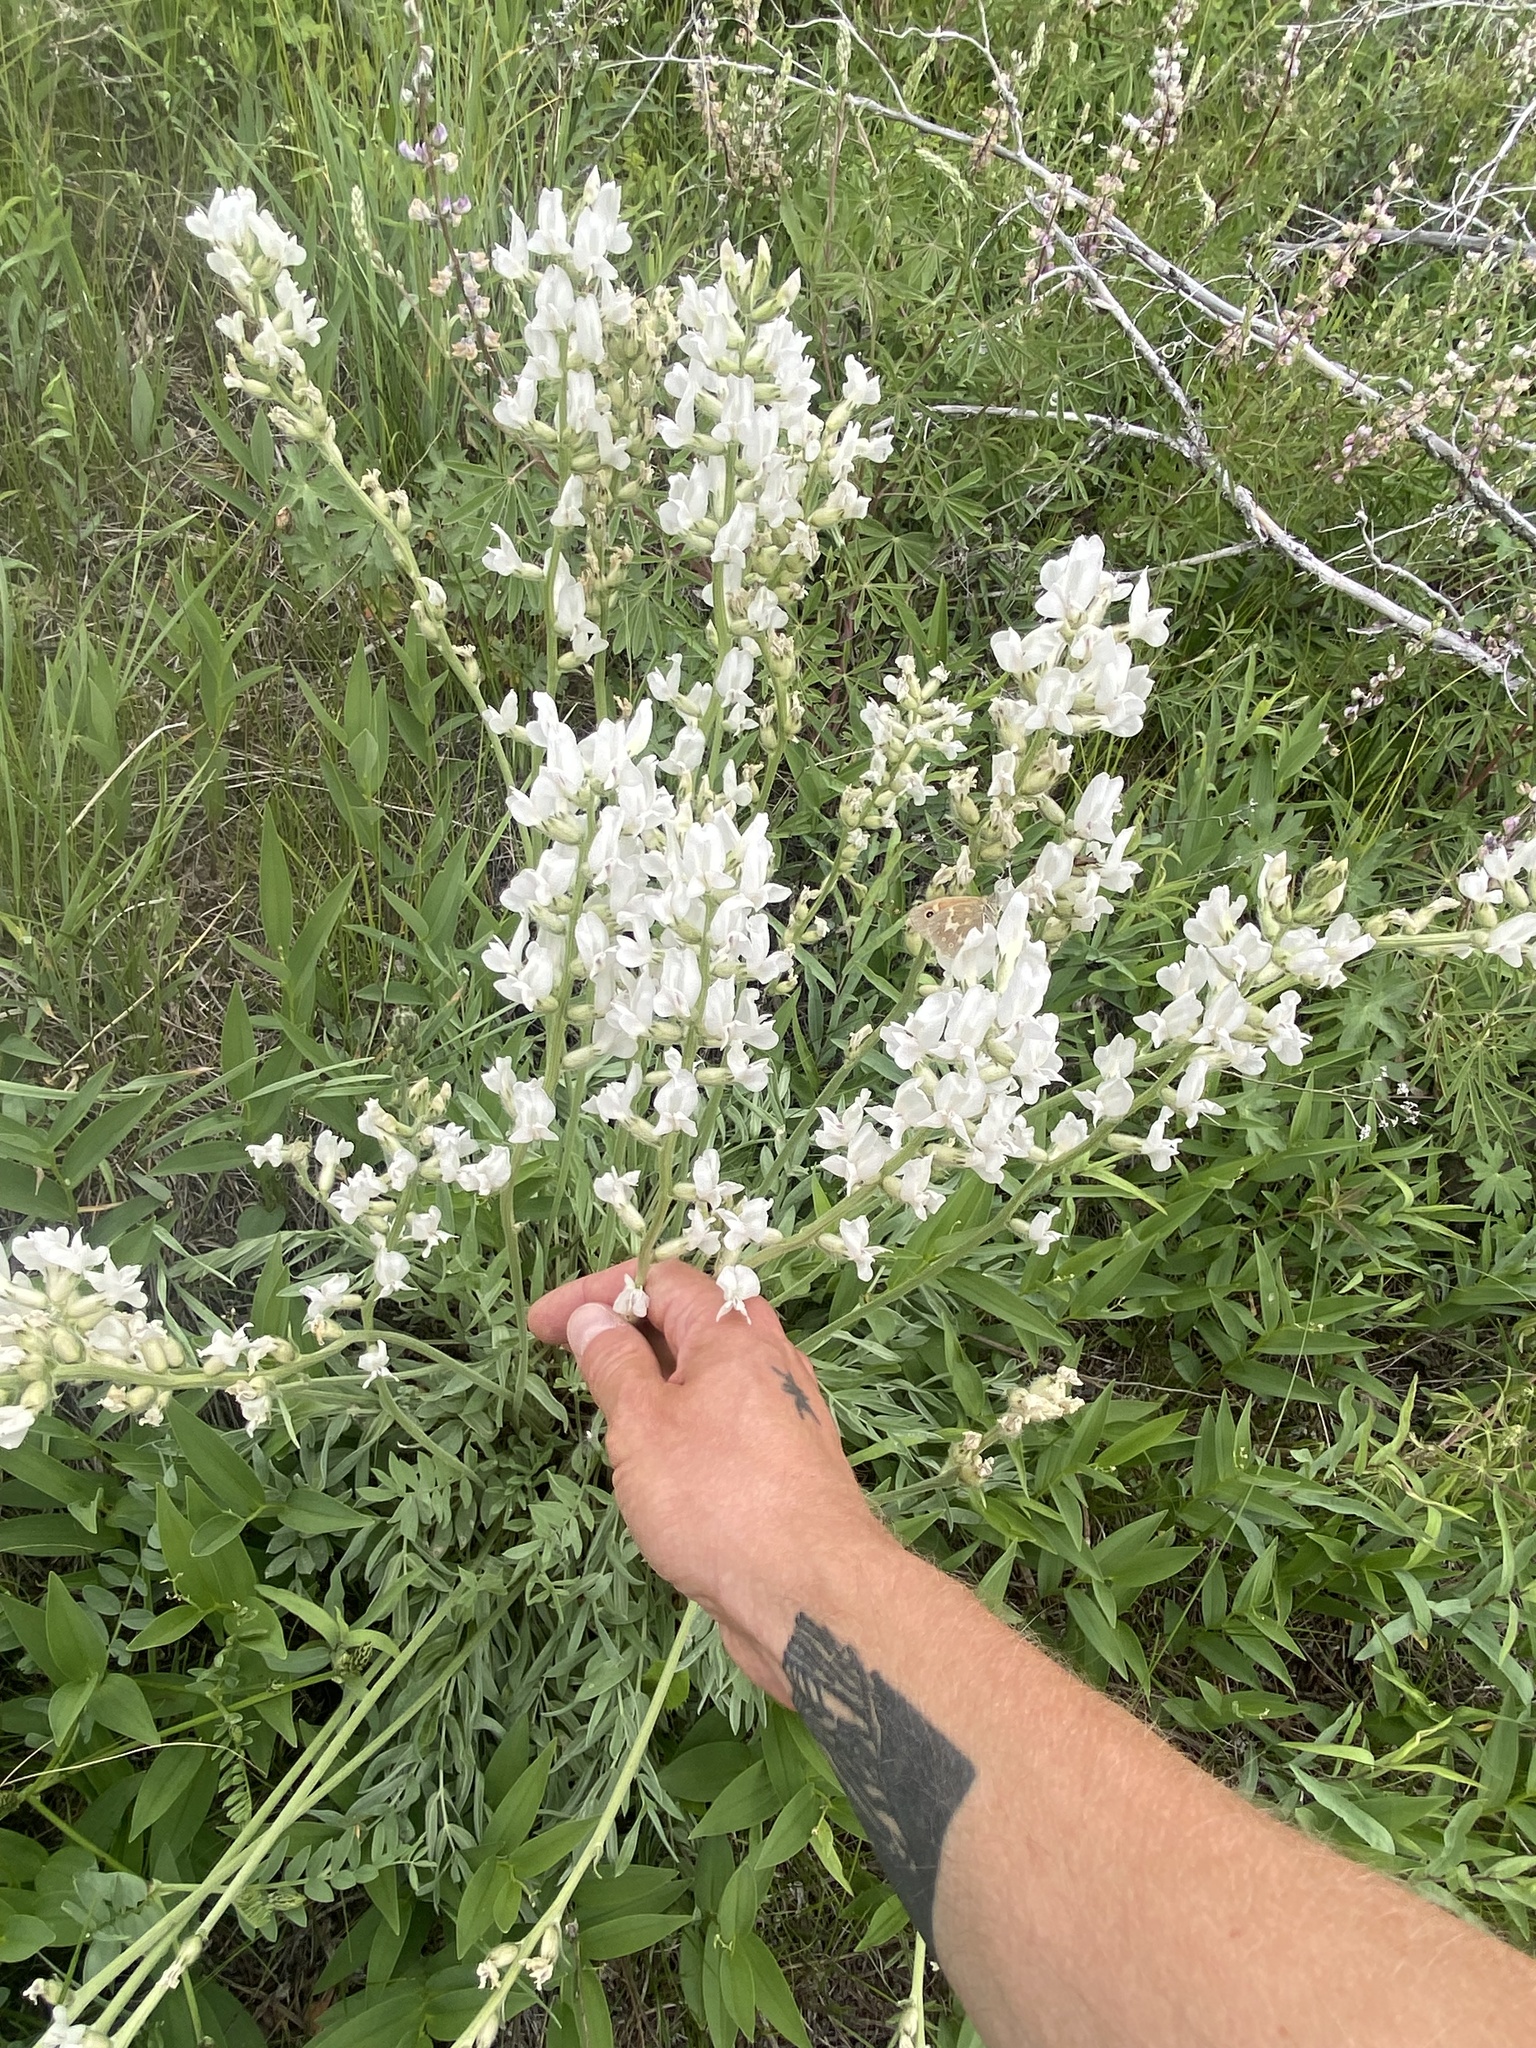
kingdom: Plantae
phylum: Tracheophyta
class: Magnoliopsida
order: Fabales
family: Fabaceae
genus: Oxytropis
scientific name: Oxytropis sericea
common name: Silky locoweed
